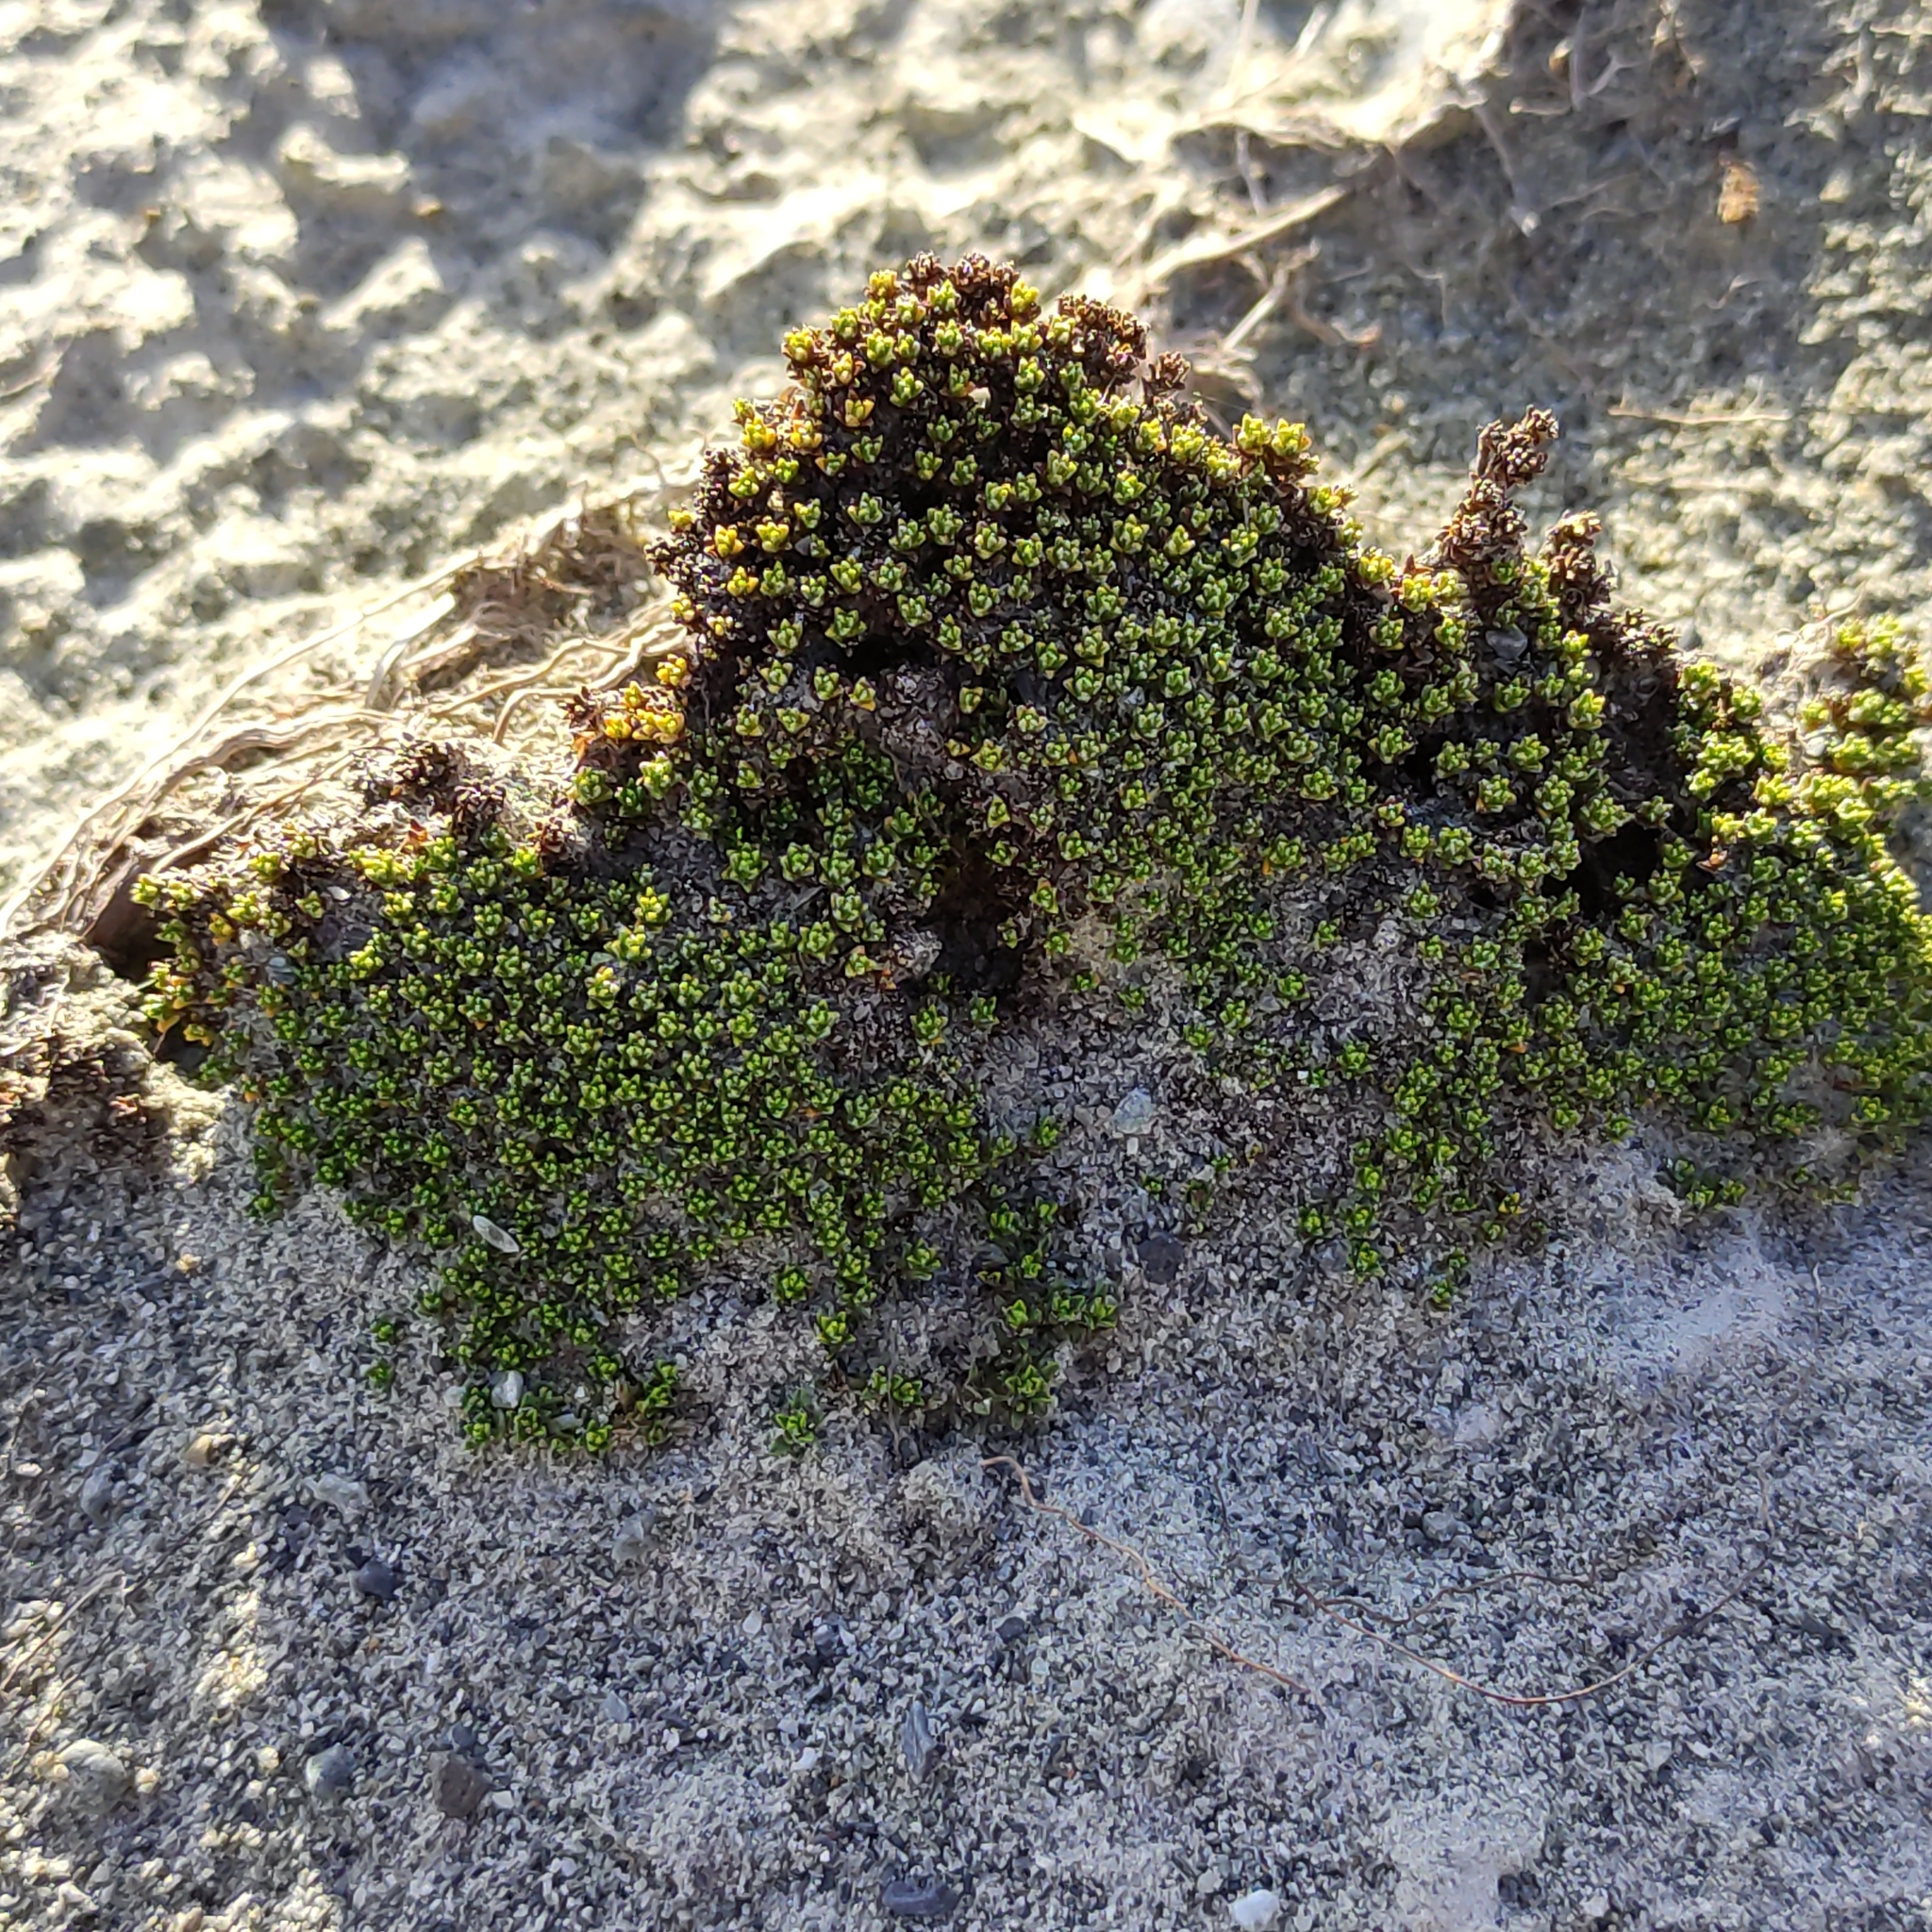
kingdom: Plantae
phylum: Tracheophyta
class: Magnoliopsida
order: Asterales
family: Asteraceae
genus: Raoulia
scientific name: Raoulia haastii
